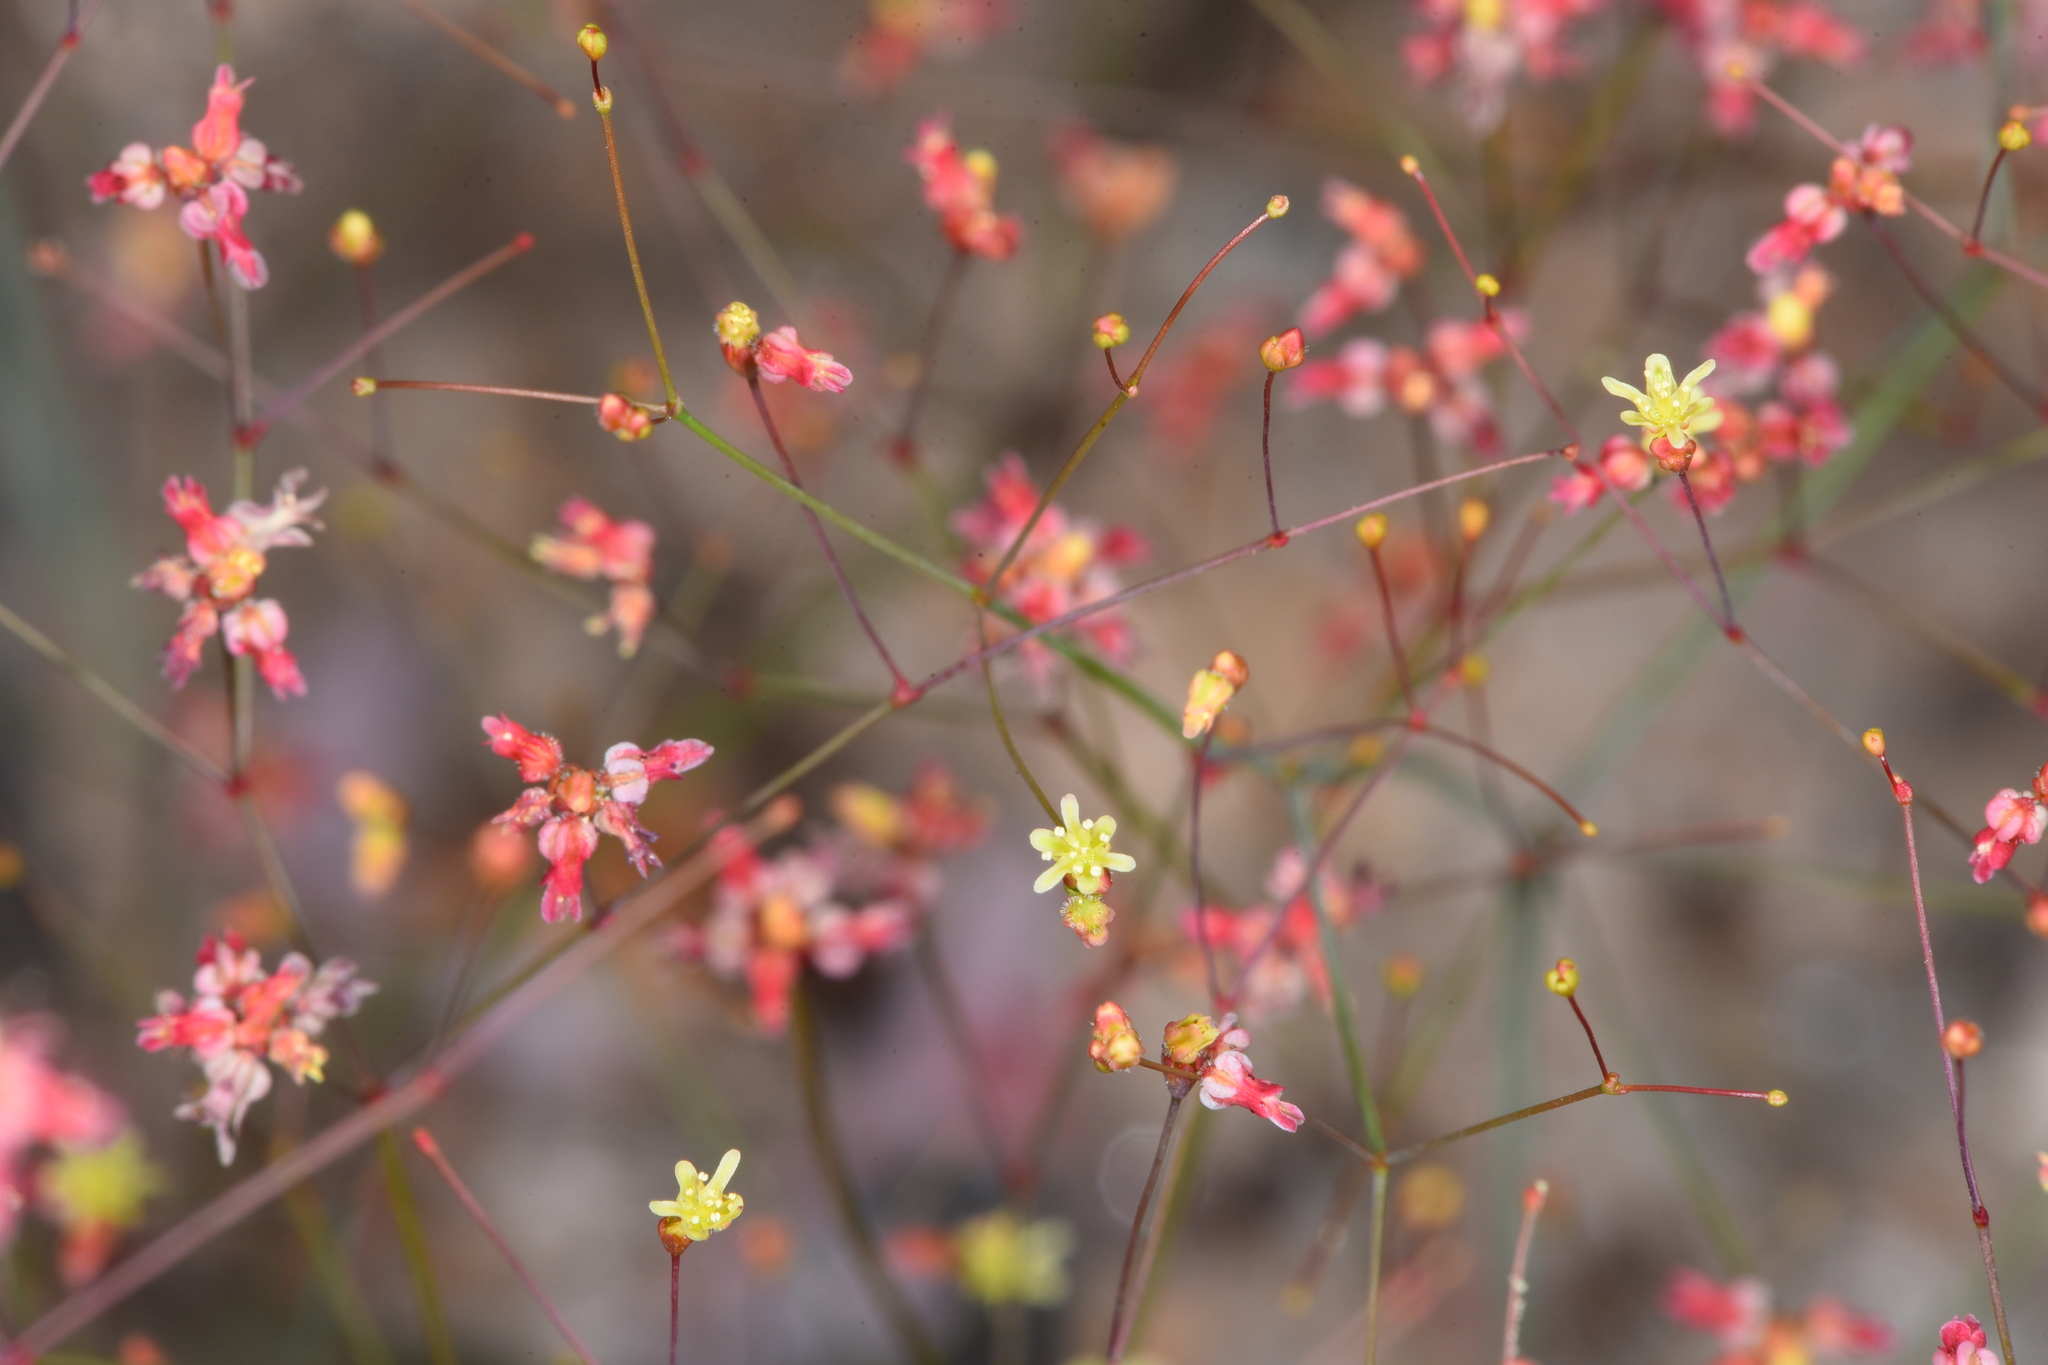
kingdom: Plantae
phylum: Tracheophyta
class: Magnoliopsida
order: Caryophyllales
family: Polygonaceae
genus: Eriogonum
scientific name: Eriogonum thomasii
